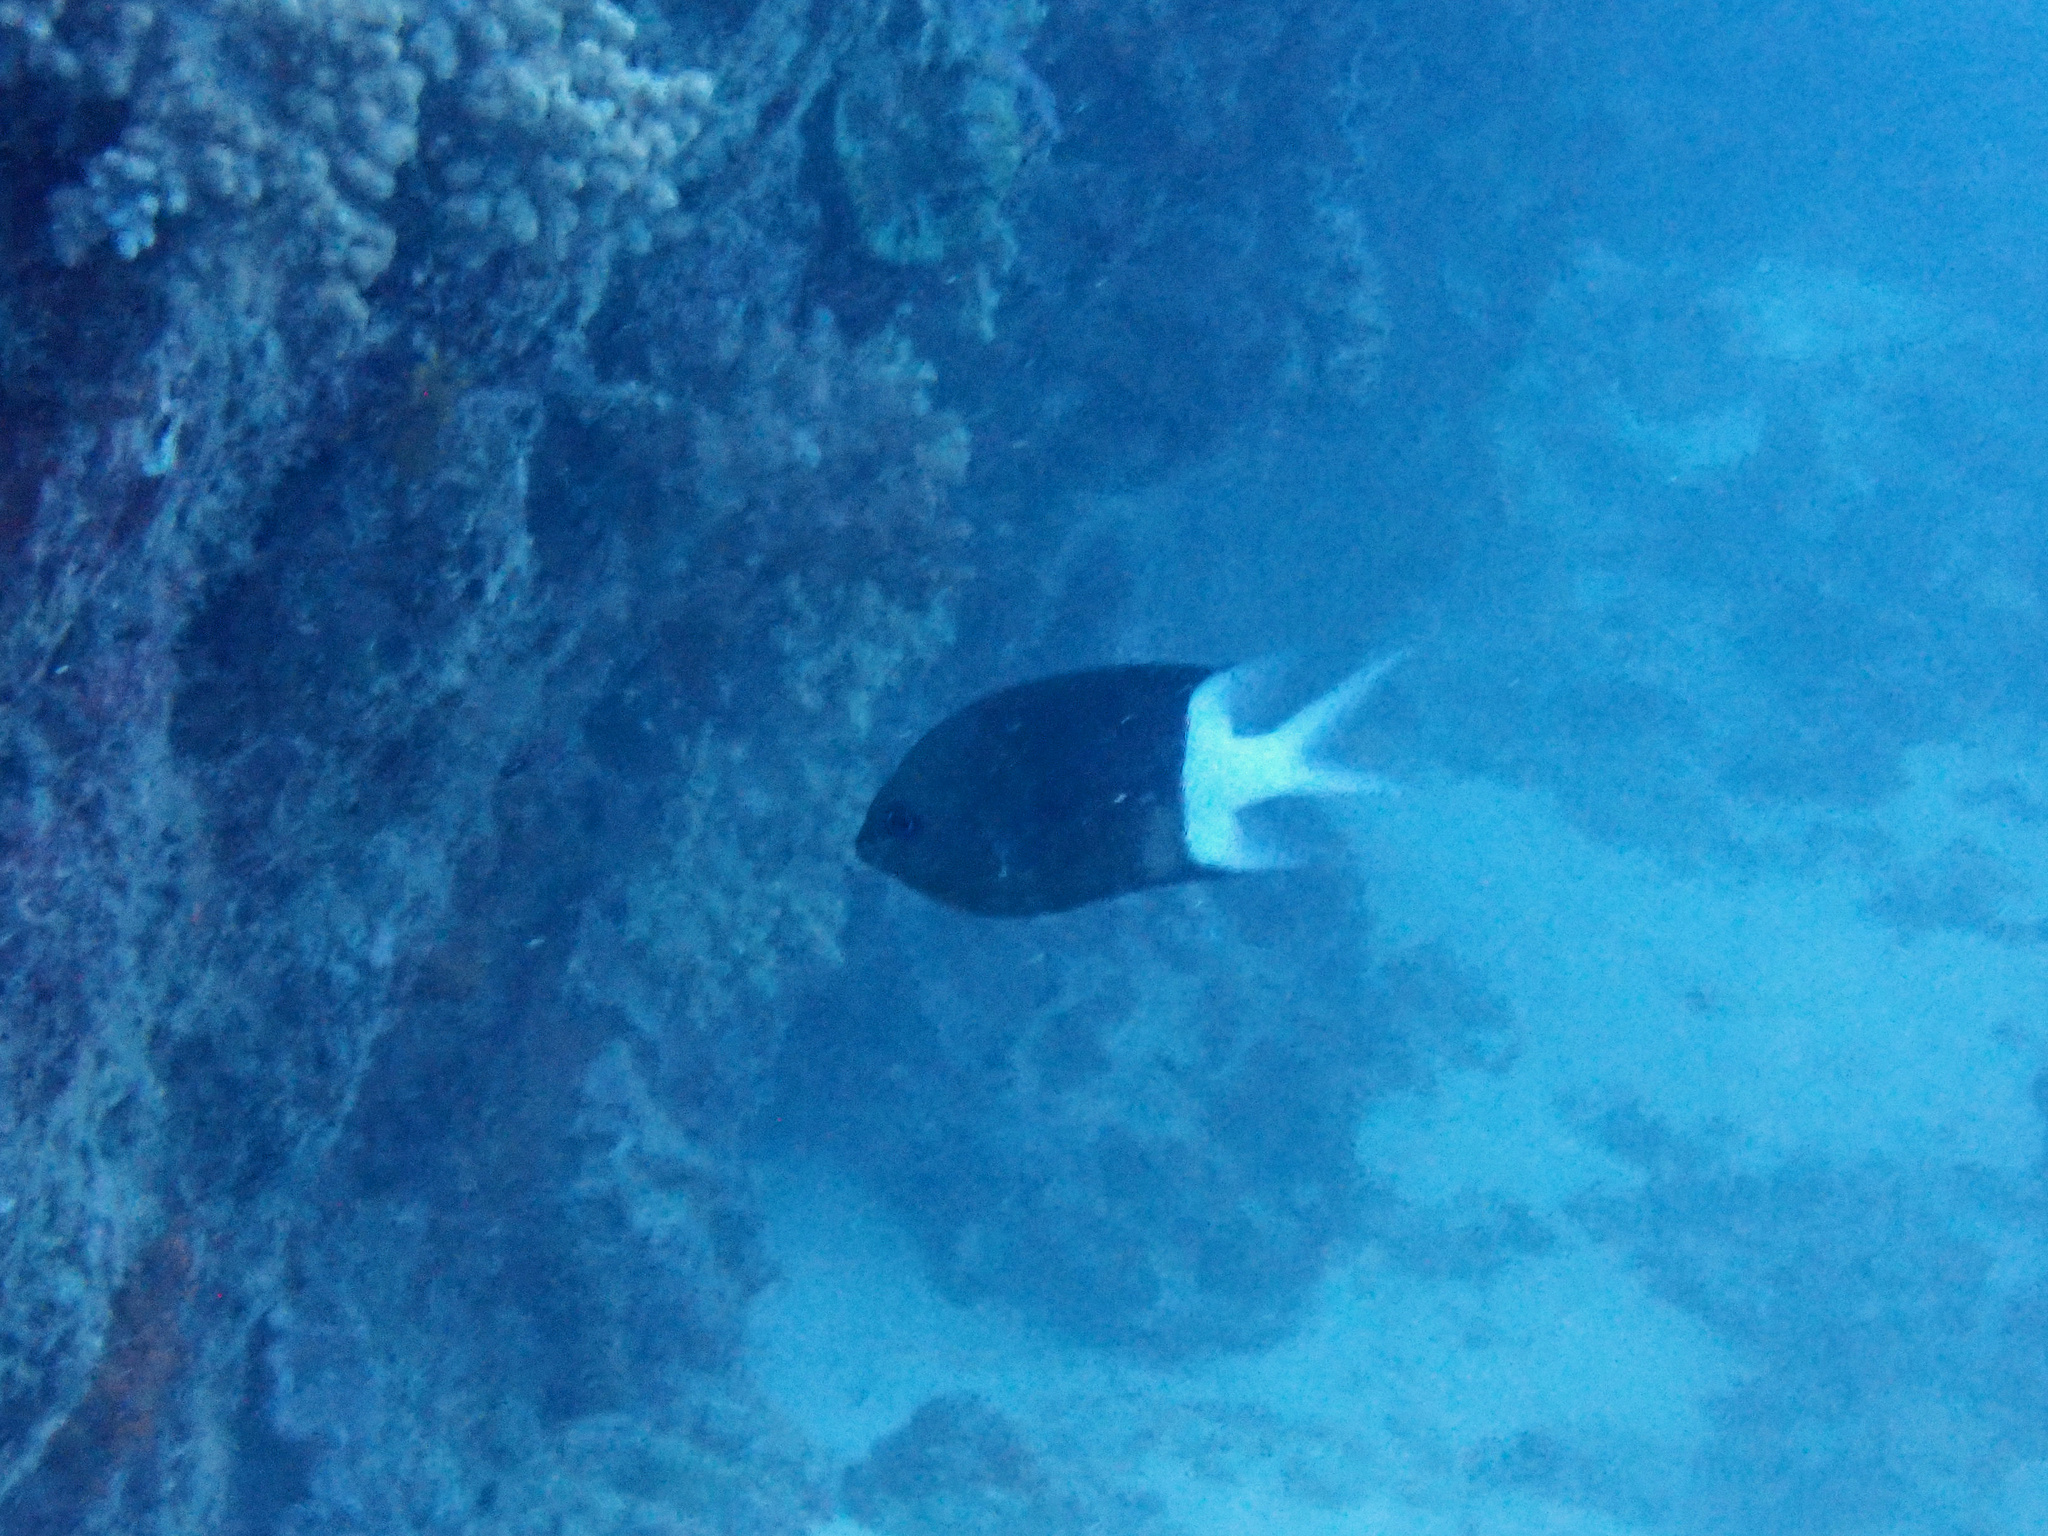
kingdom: Animalia
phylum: Chordata
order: Perciformes
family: Pomacentridae
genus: Acanthochromis
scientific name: Acanthochromis polyacanthus
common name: Spiny chromis
